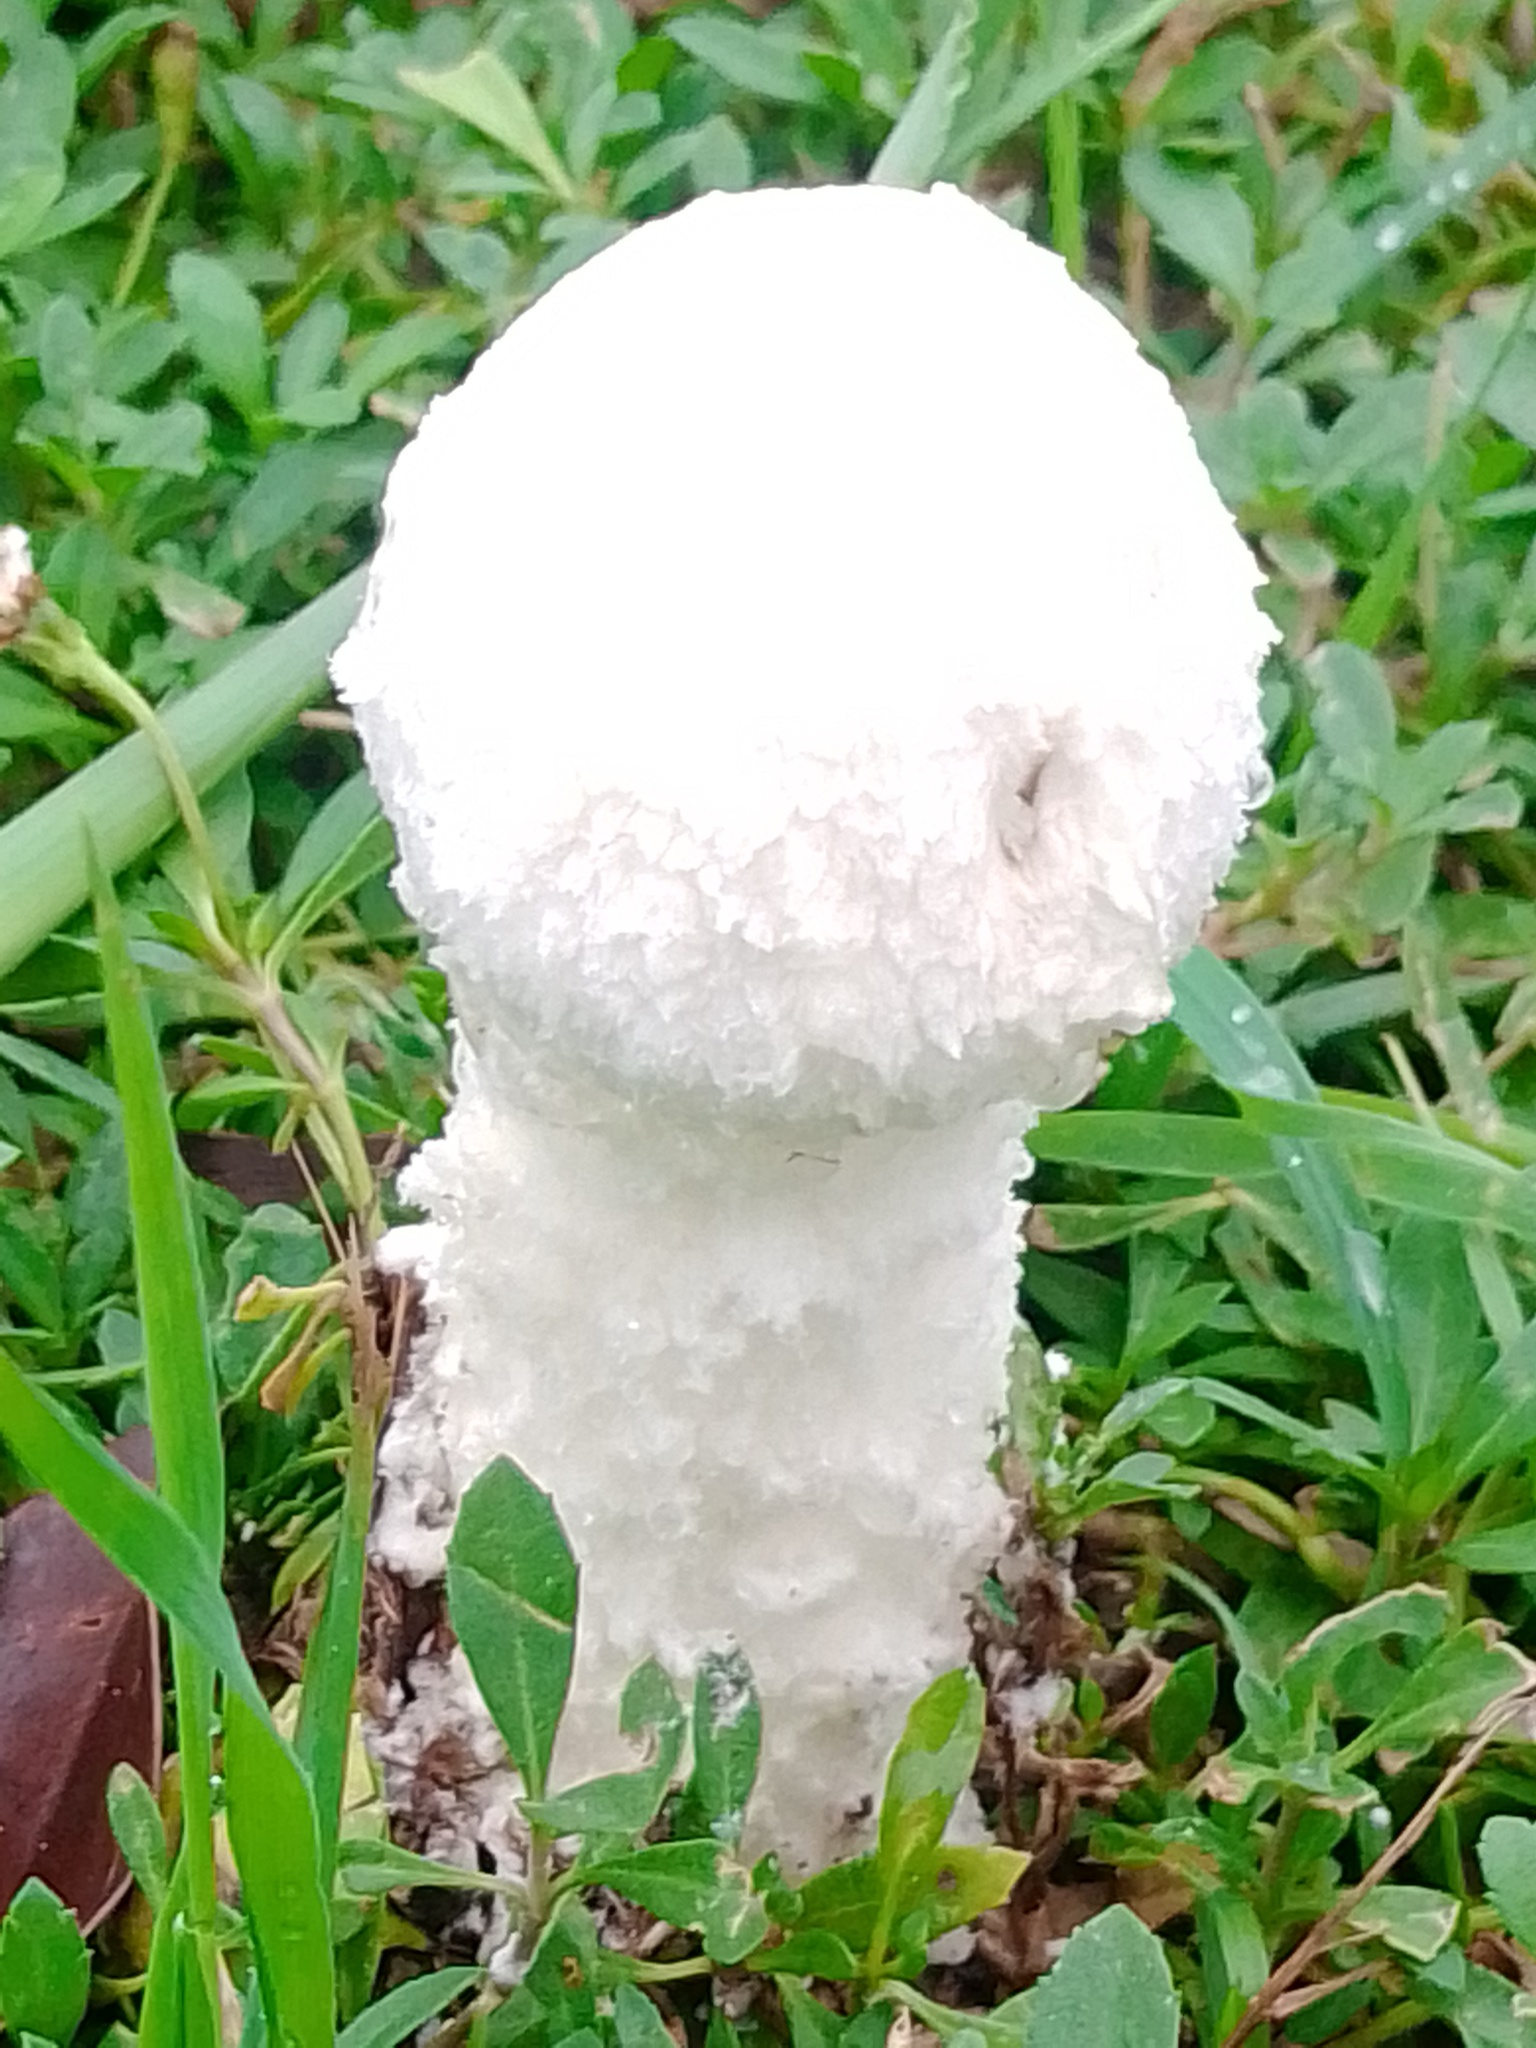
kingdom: Fungi
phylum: Basidiomycota
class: Agaricomycetes
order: Agaricales
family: Amanitaceae
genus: Aspidella
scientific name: Aspidella foetens
